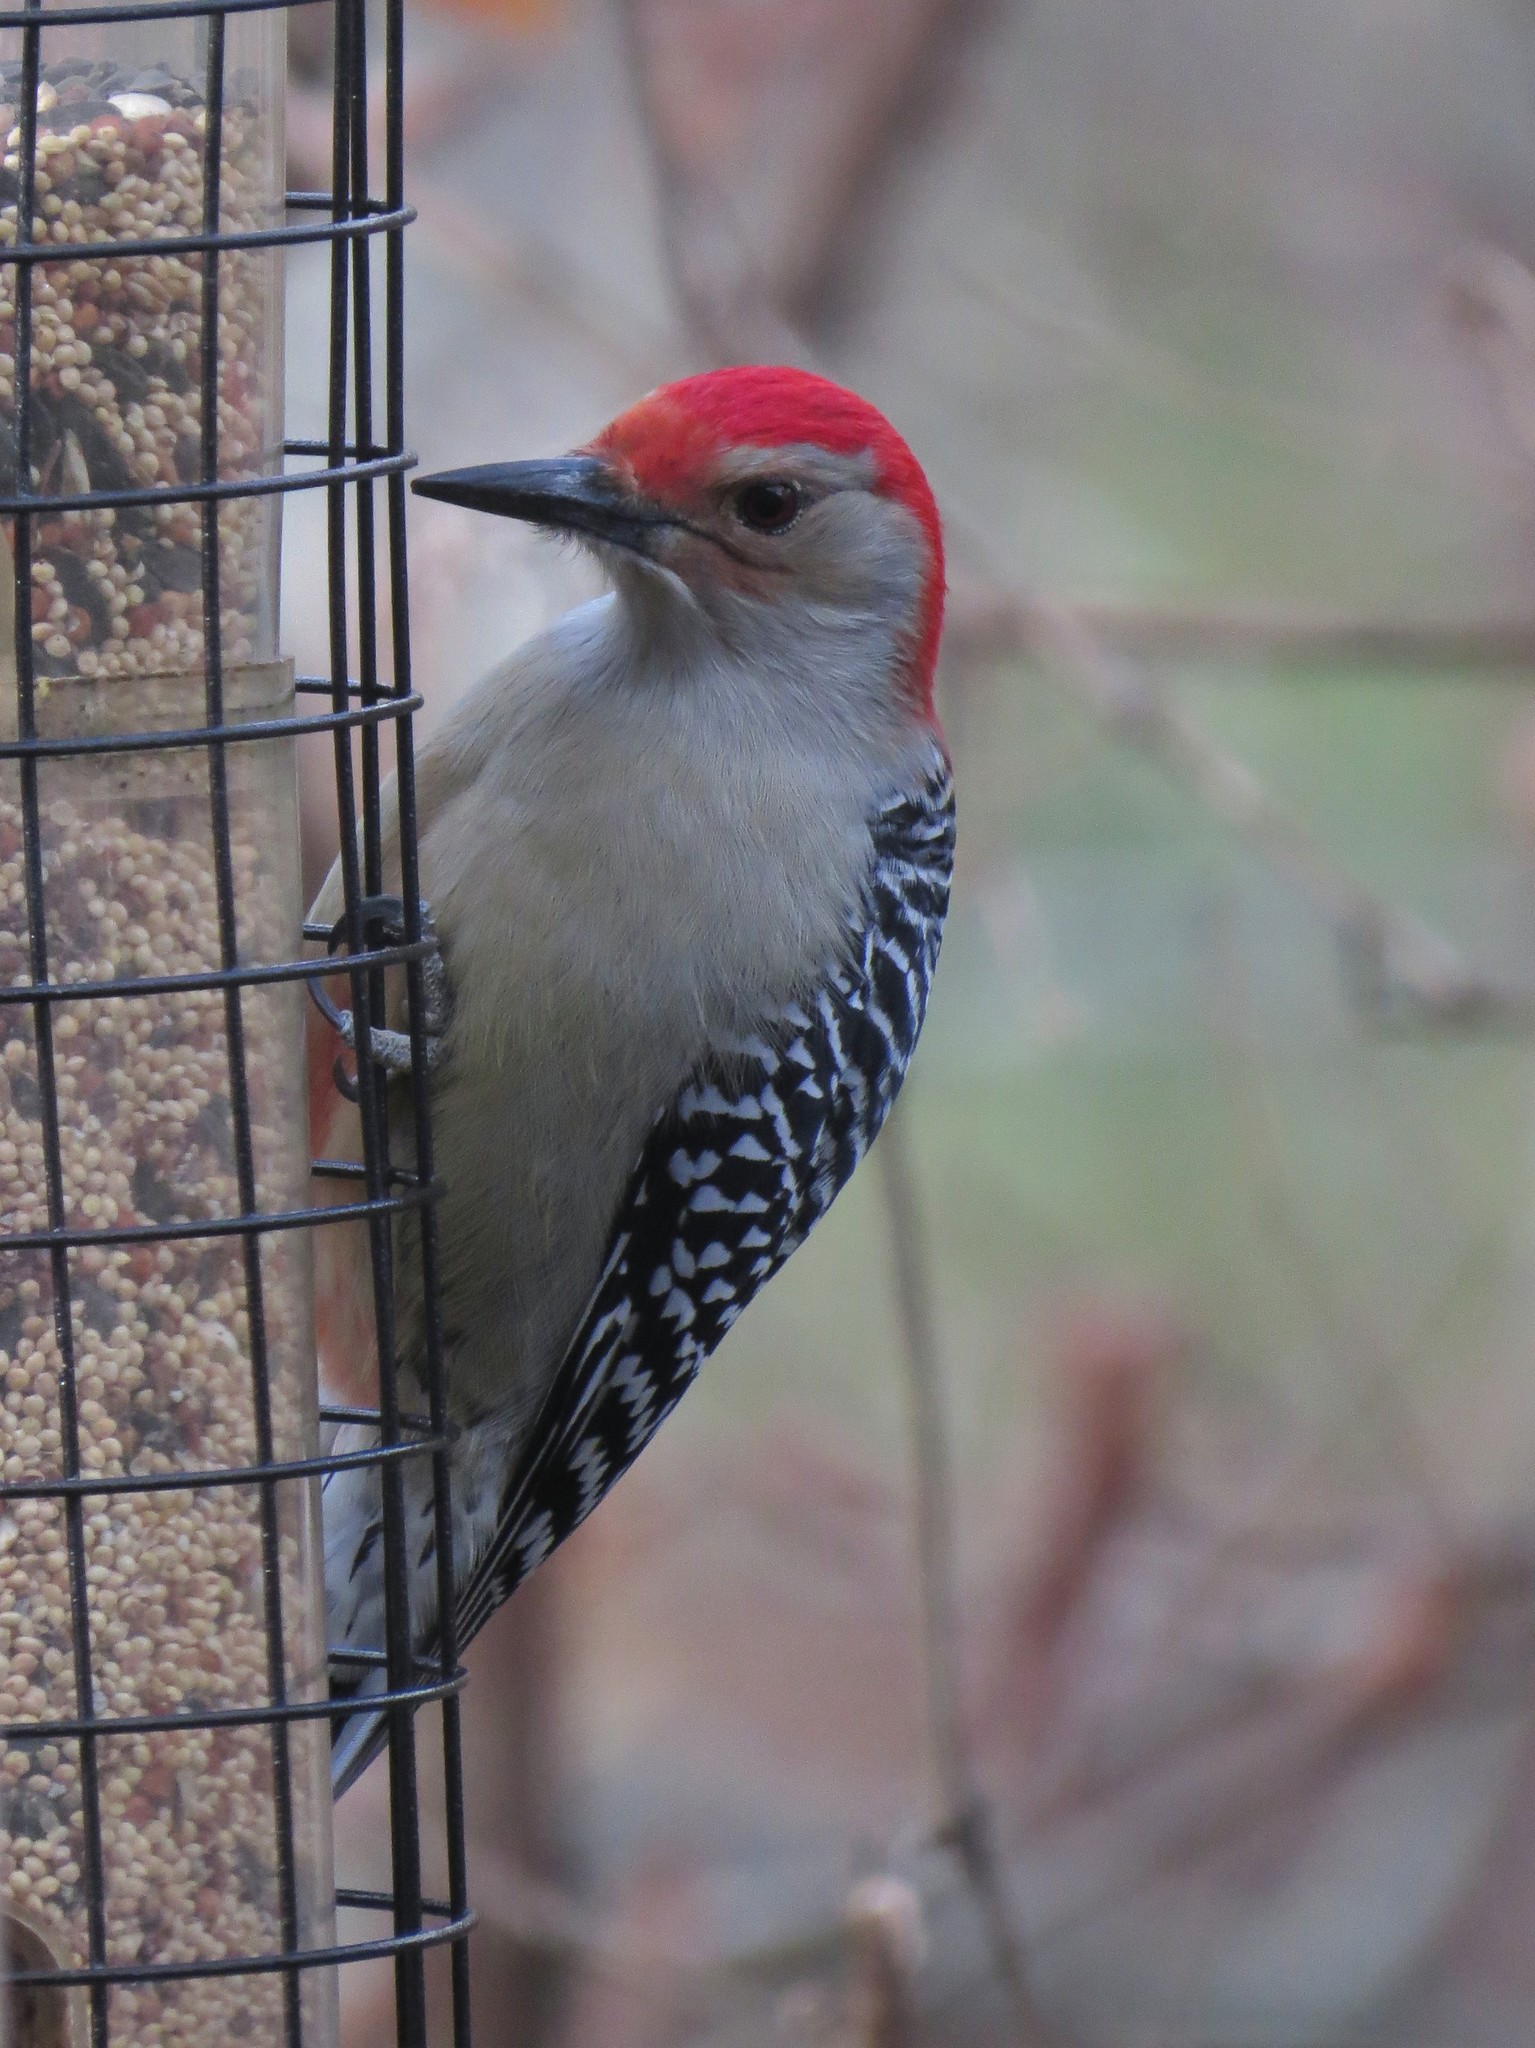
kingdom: Animalia
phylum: Chordata
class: Aves
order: Piciformes
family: Picidae
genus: Melanerpes
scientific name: Melanerpes carolinus
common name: Red-bellied woodpecker
